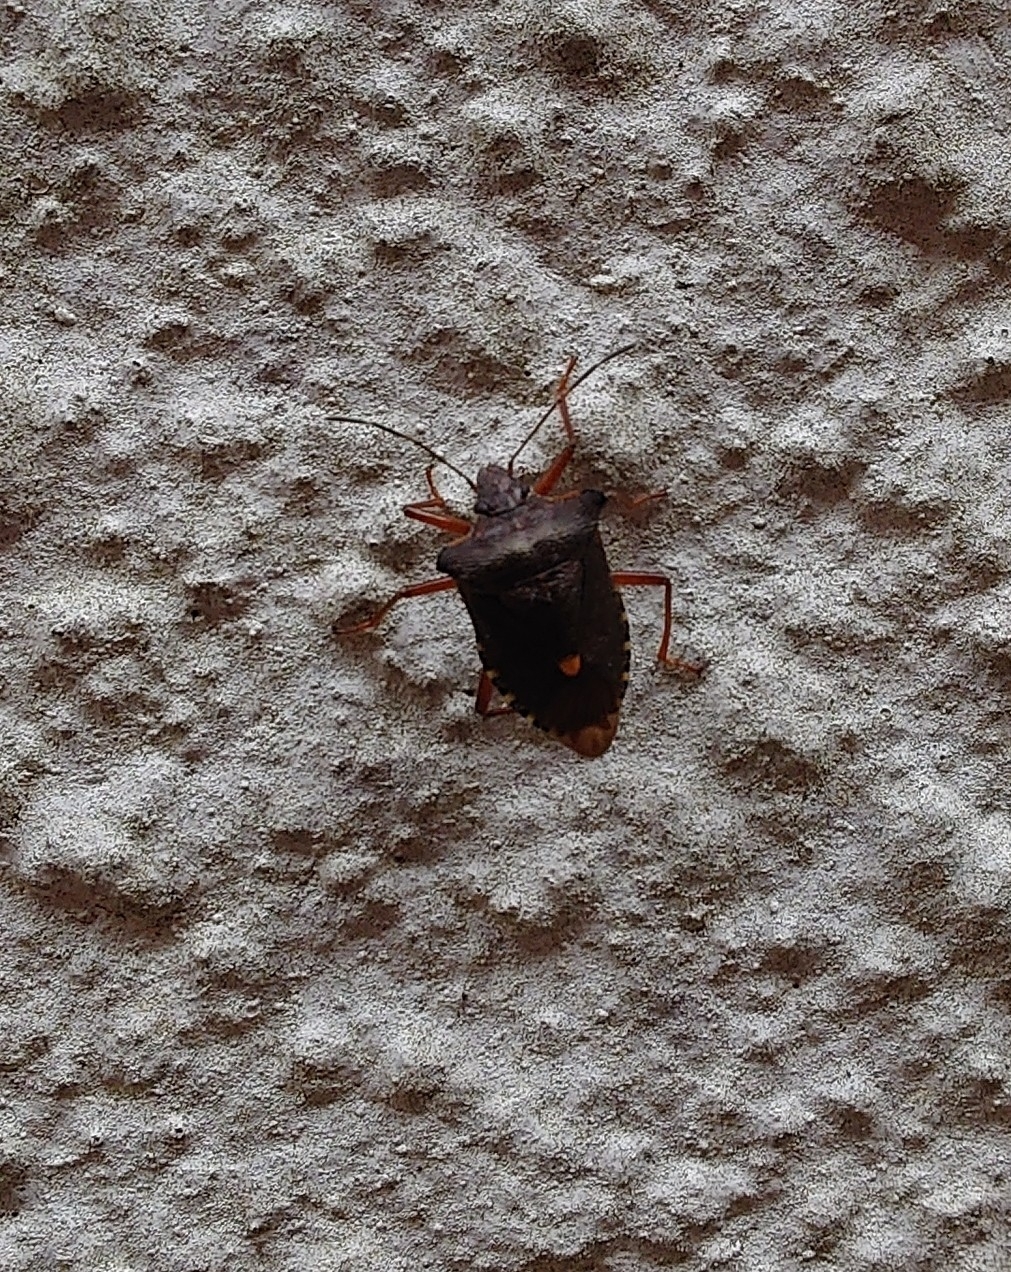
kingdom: Animalia
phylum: Arthropoda
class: Insecta
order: Hemiptera
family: Pentatomidae
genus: Pentatoma
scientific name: Pentatoma rufipes
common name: Forest bug
